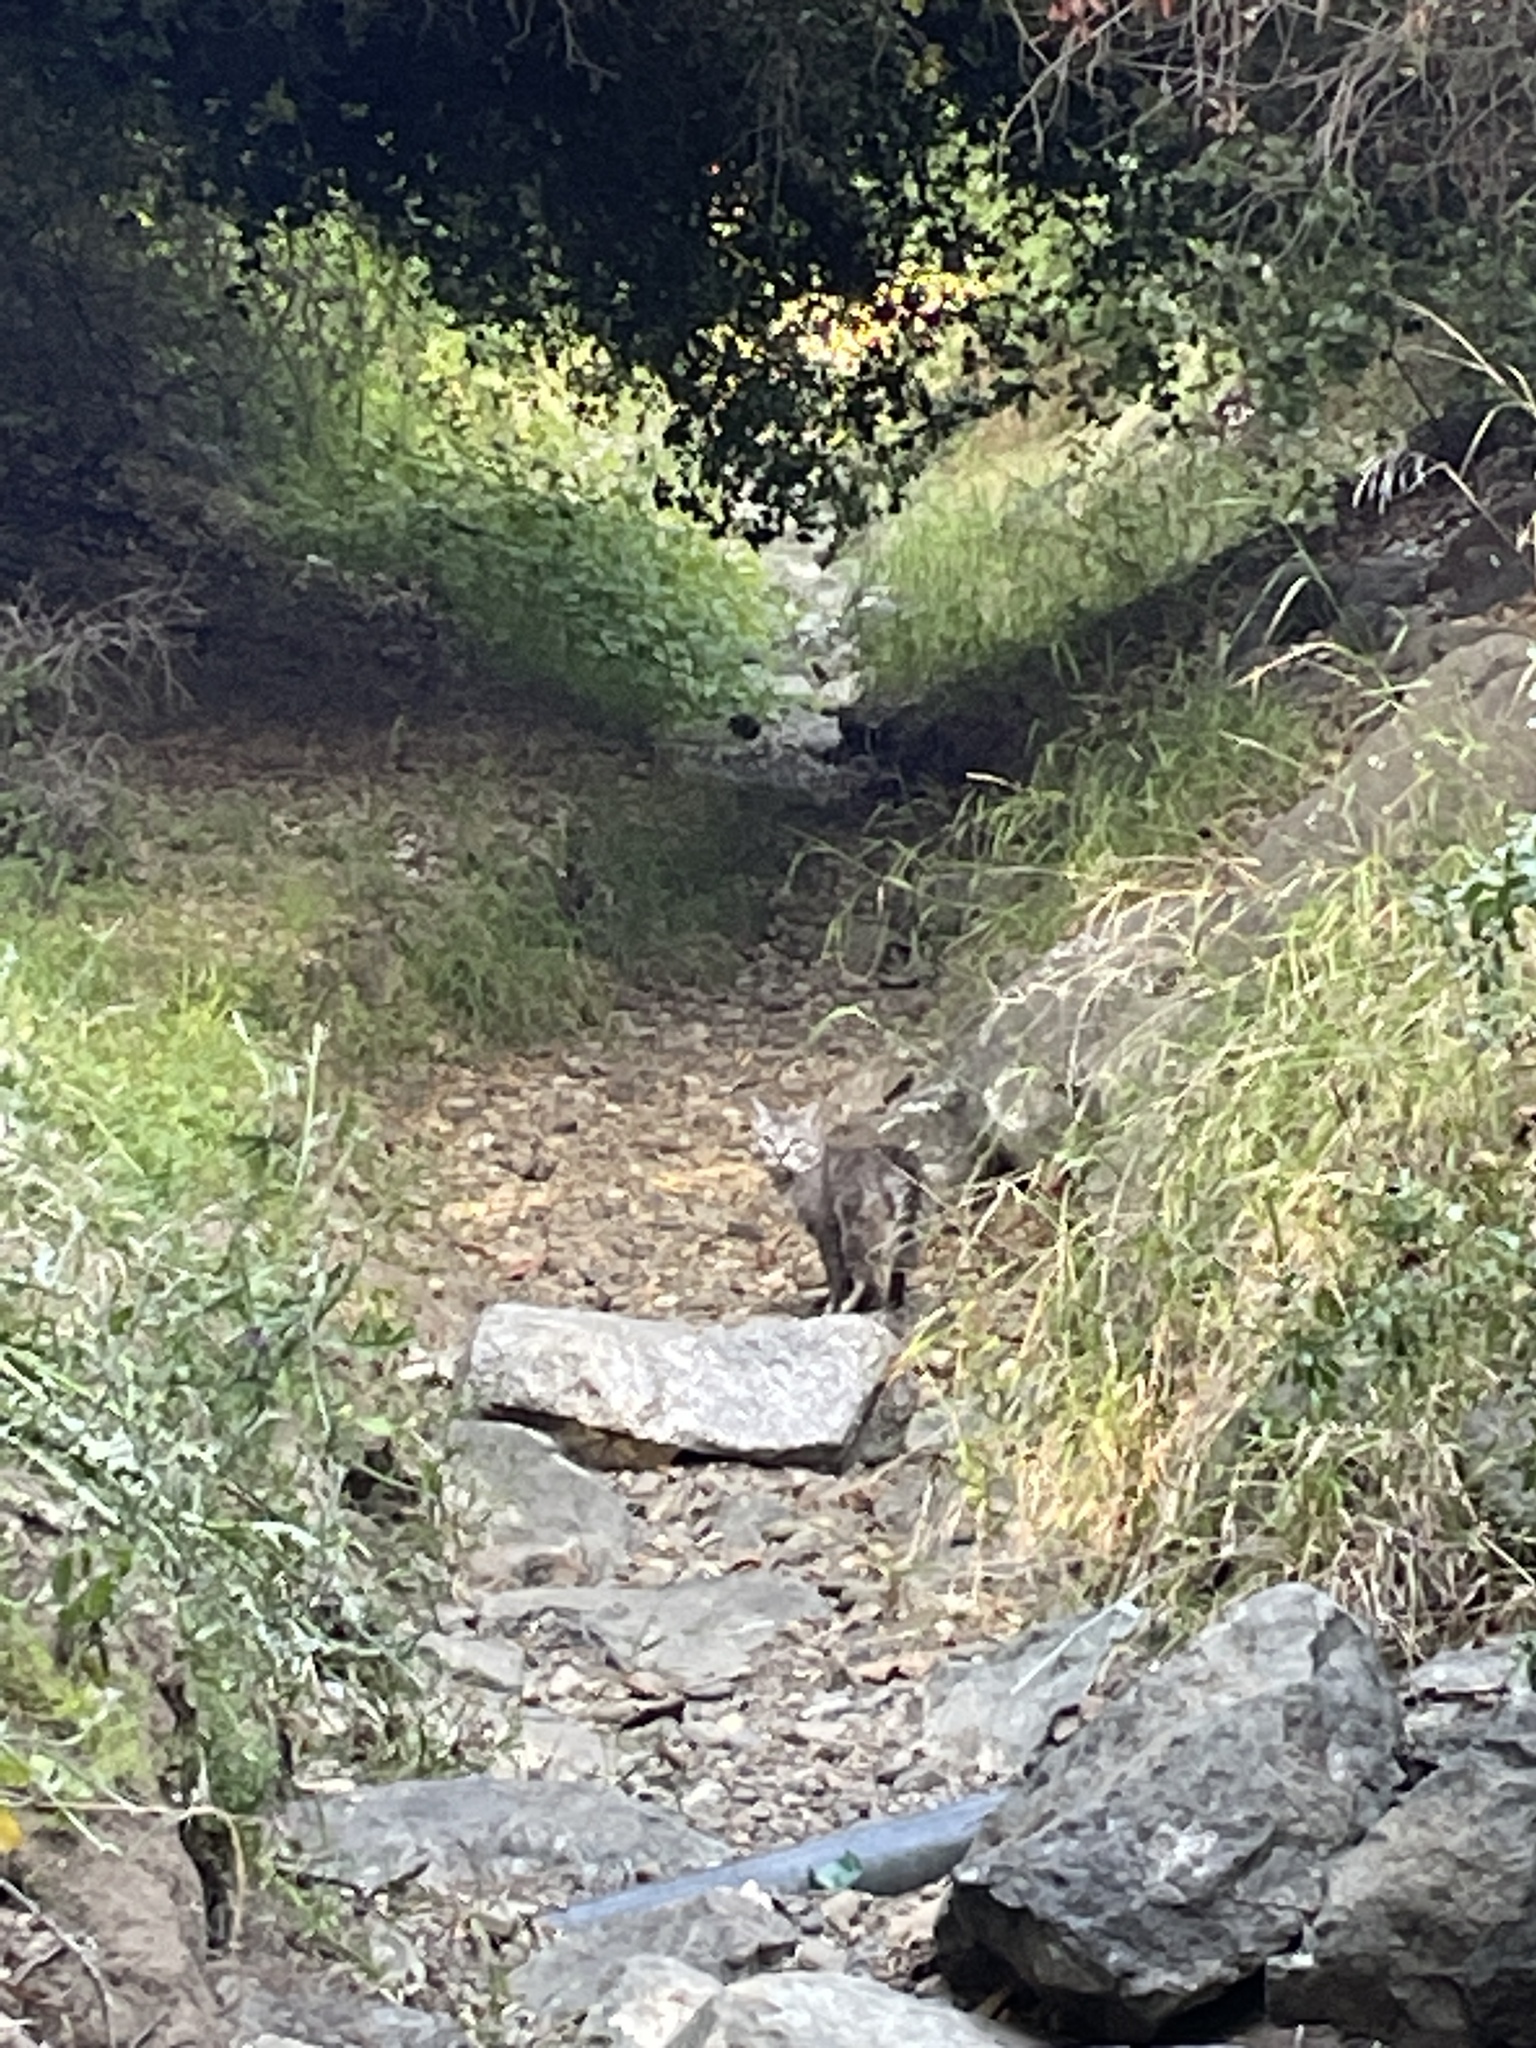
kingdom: Animalia
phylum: Chordata
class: Mammalia
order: Carnivora
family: Felidae
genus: Felis
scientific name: Felis catus
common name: Domestic cat
